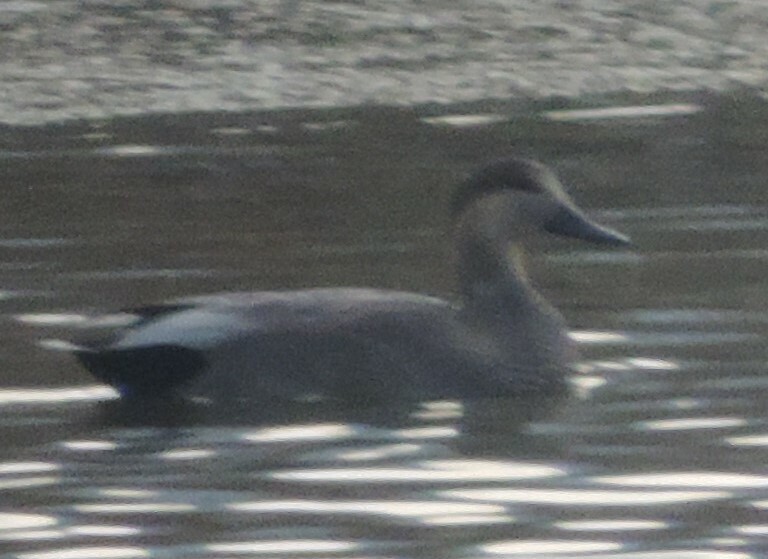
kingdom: Animalia
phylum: Chordata
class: Aves
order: Anseriformes
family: Anatidae
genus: Mareca
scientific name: Mareca strepera
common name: Gadwall
